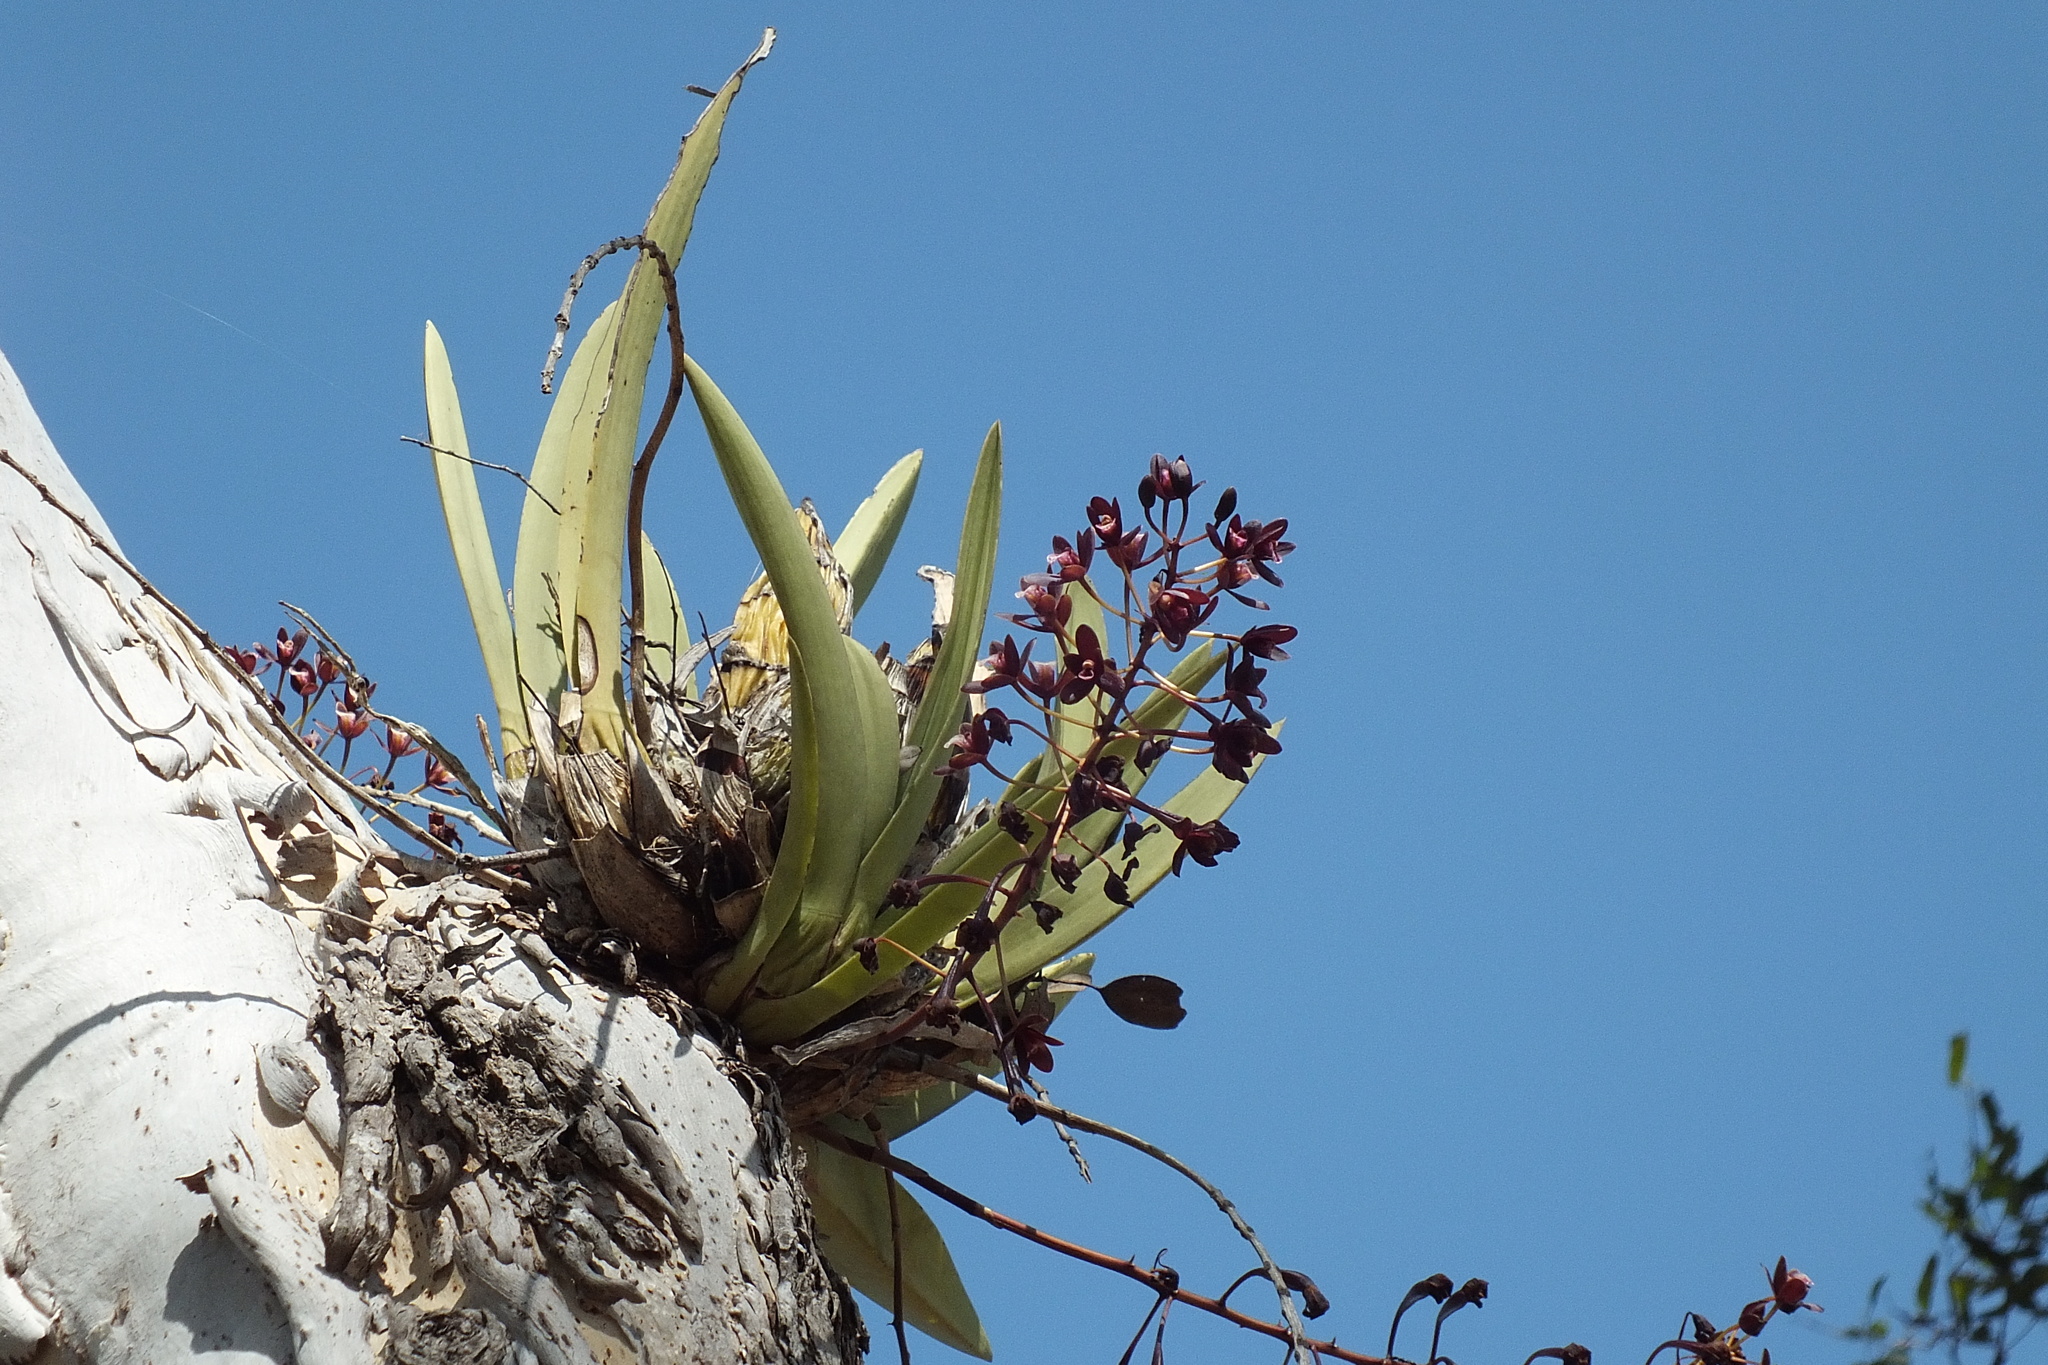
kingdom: Plantae
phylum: Tracheophyta
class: Liliopsida
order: Asparagales
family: Orchidaceae
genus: Cymbidium
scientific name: Cymbidium canaliculatum
